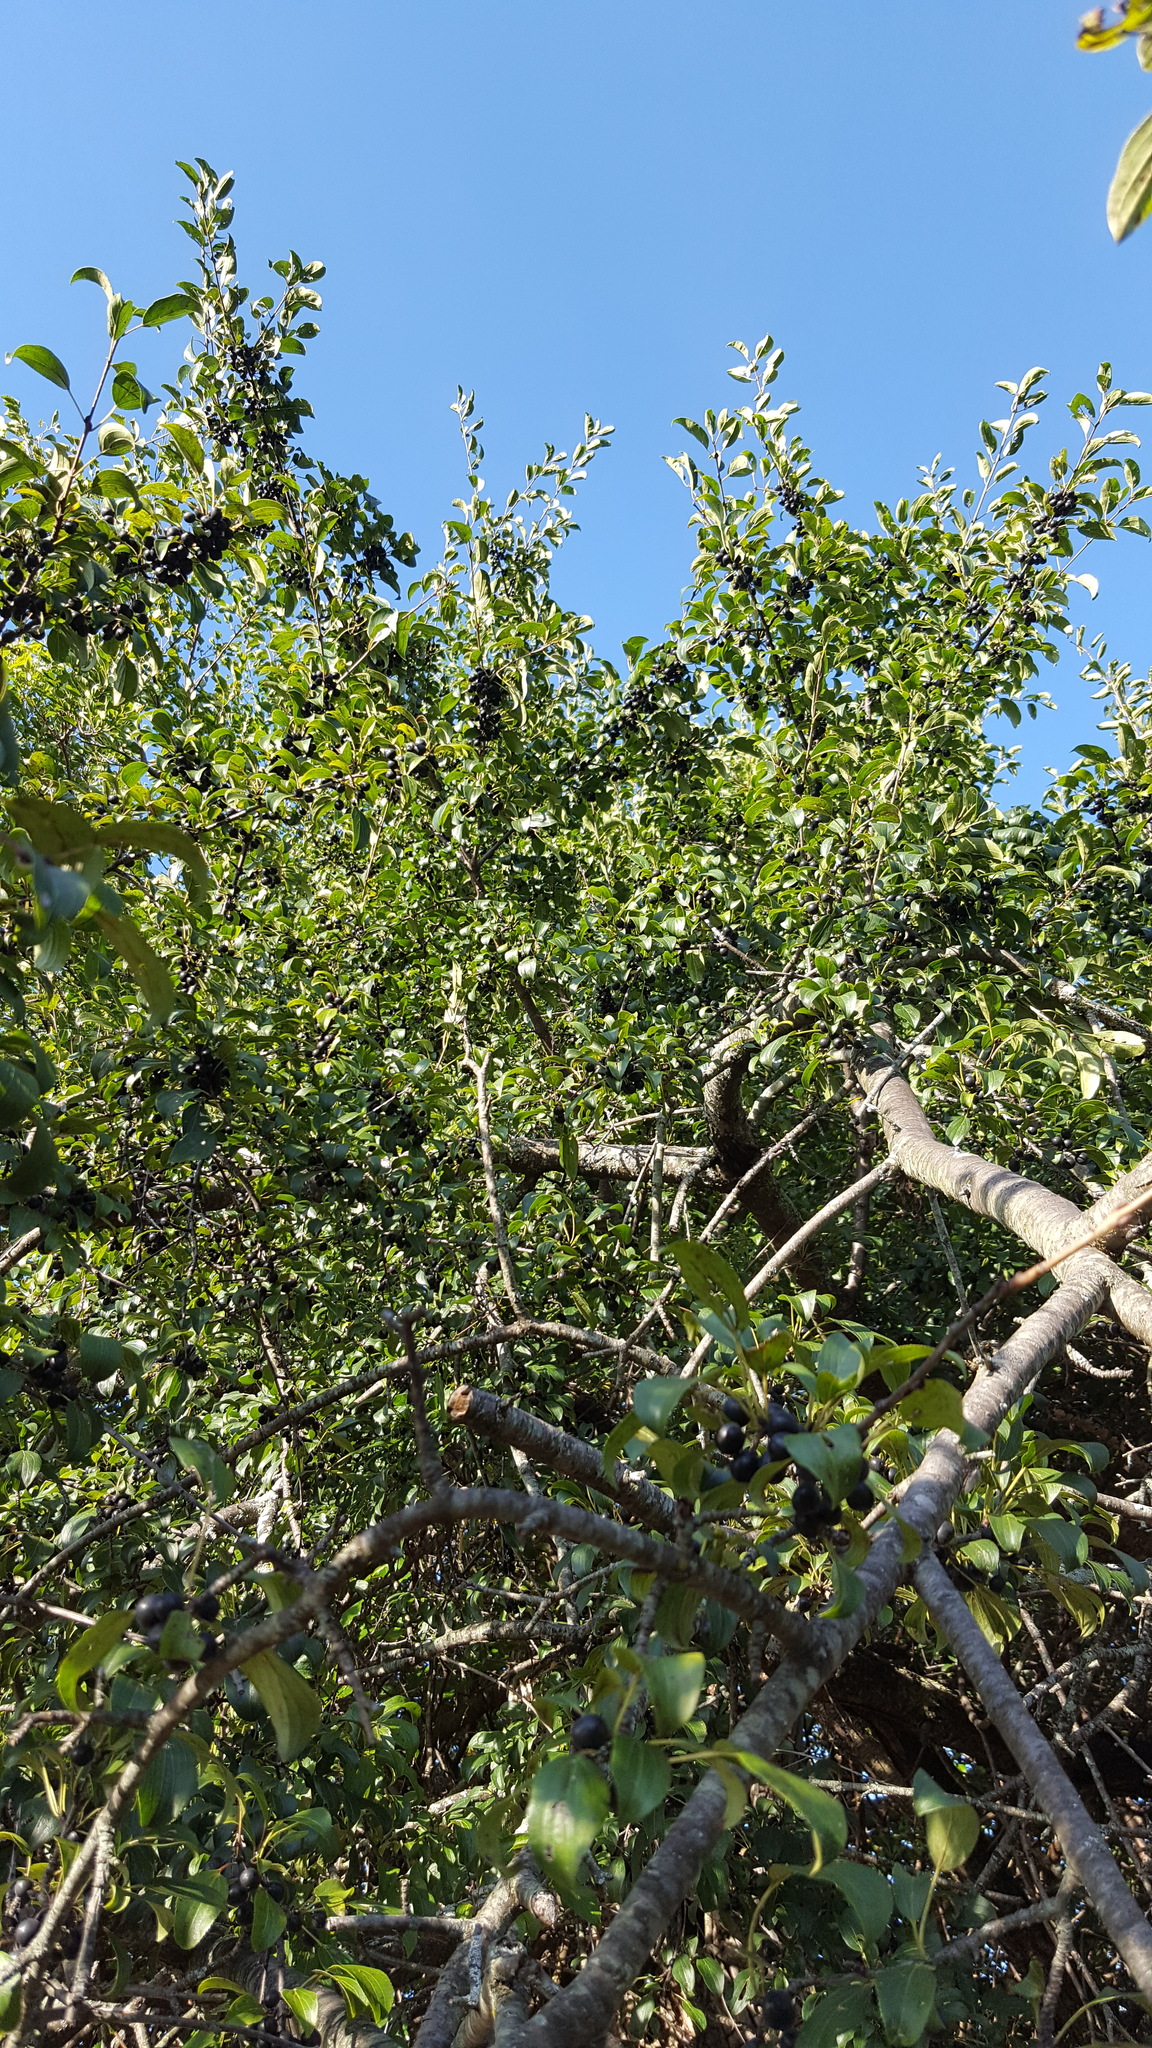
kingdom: Plantae
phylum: Tracheophyta
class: Magnoliopsida
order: Rosales
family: Rhamnaceae
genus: Rhamnus
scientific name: Rhamnus cathartica
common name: Common buckthorn
